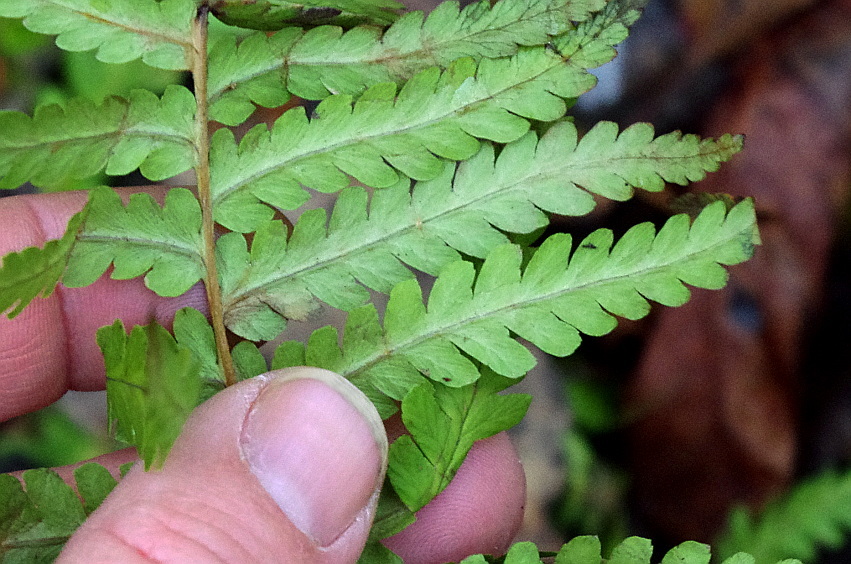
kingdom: Plantae
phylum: Tracheophyta
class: Polypodiopsida
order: Polypodiales
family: Dryopteridaceae
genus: Dryopteris
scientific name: Dryopteris filix-mas
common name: Male fern
